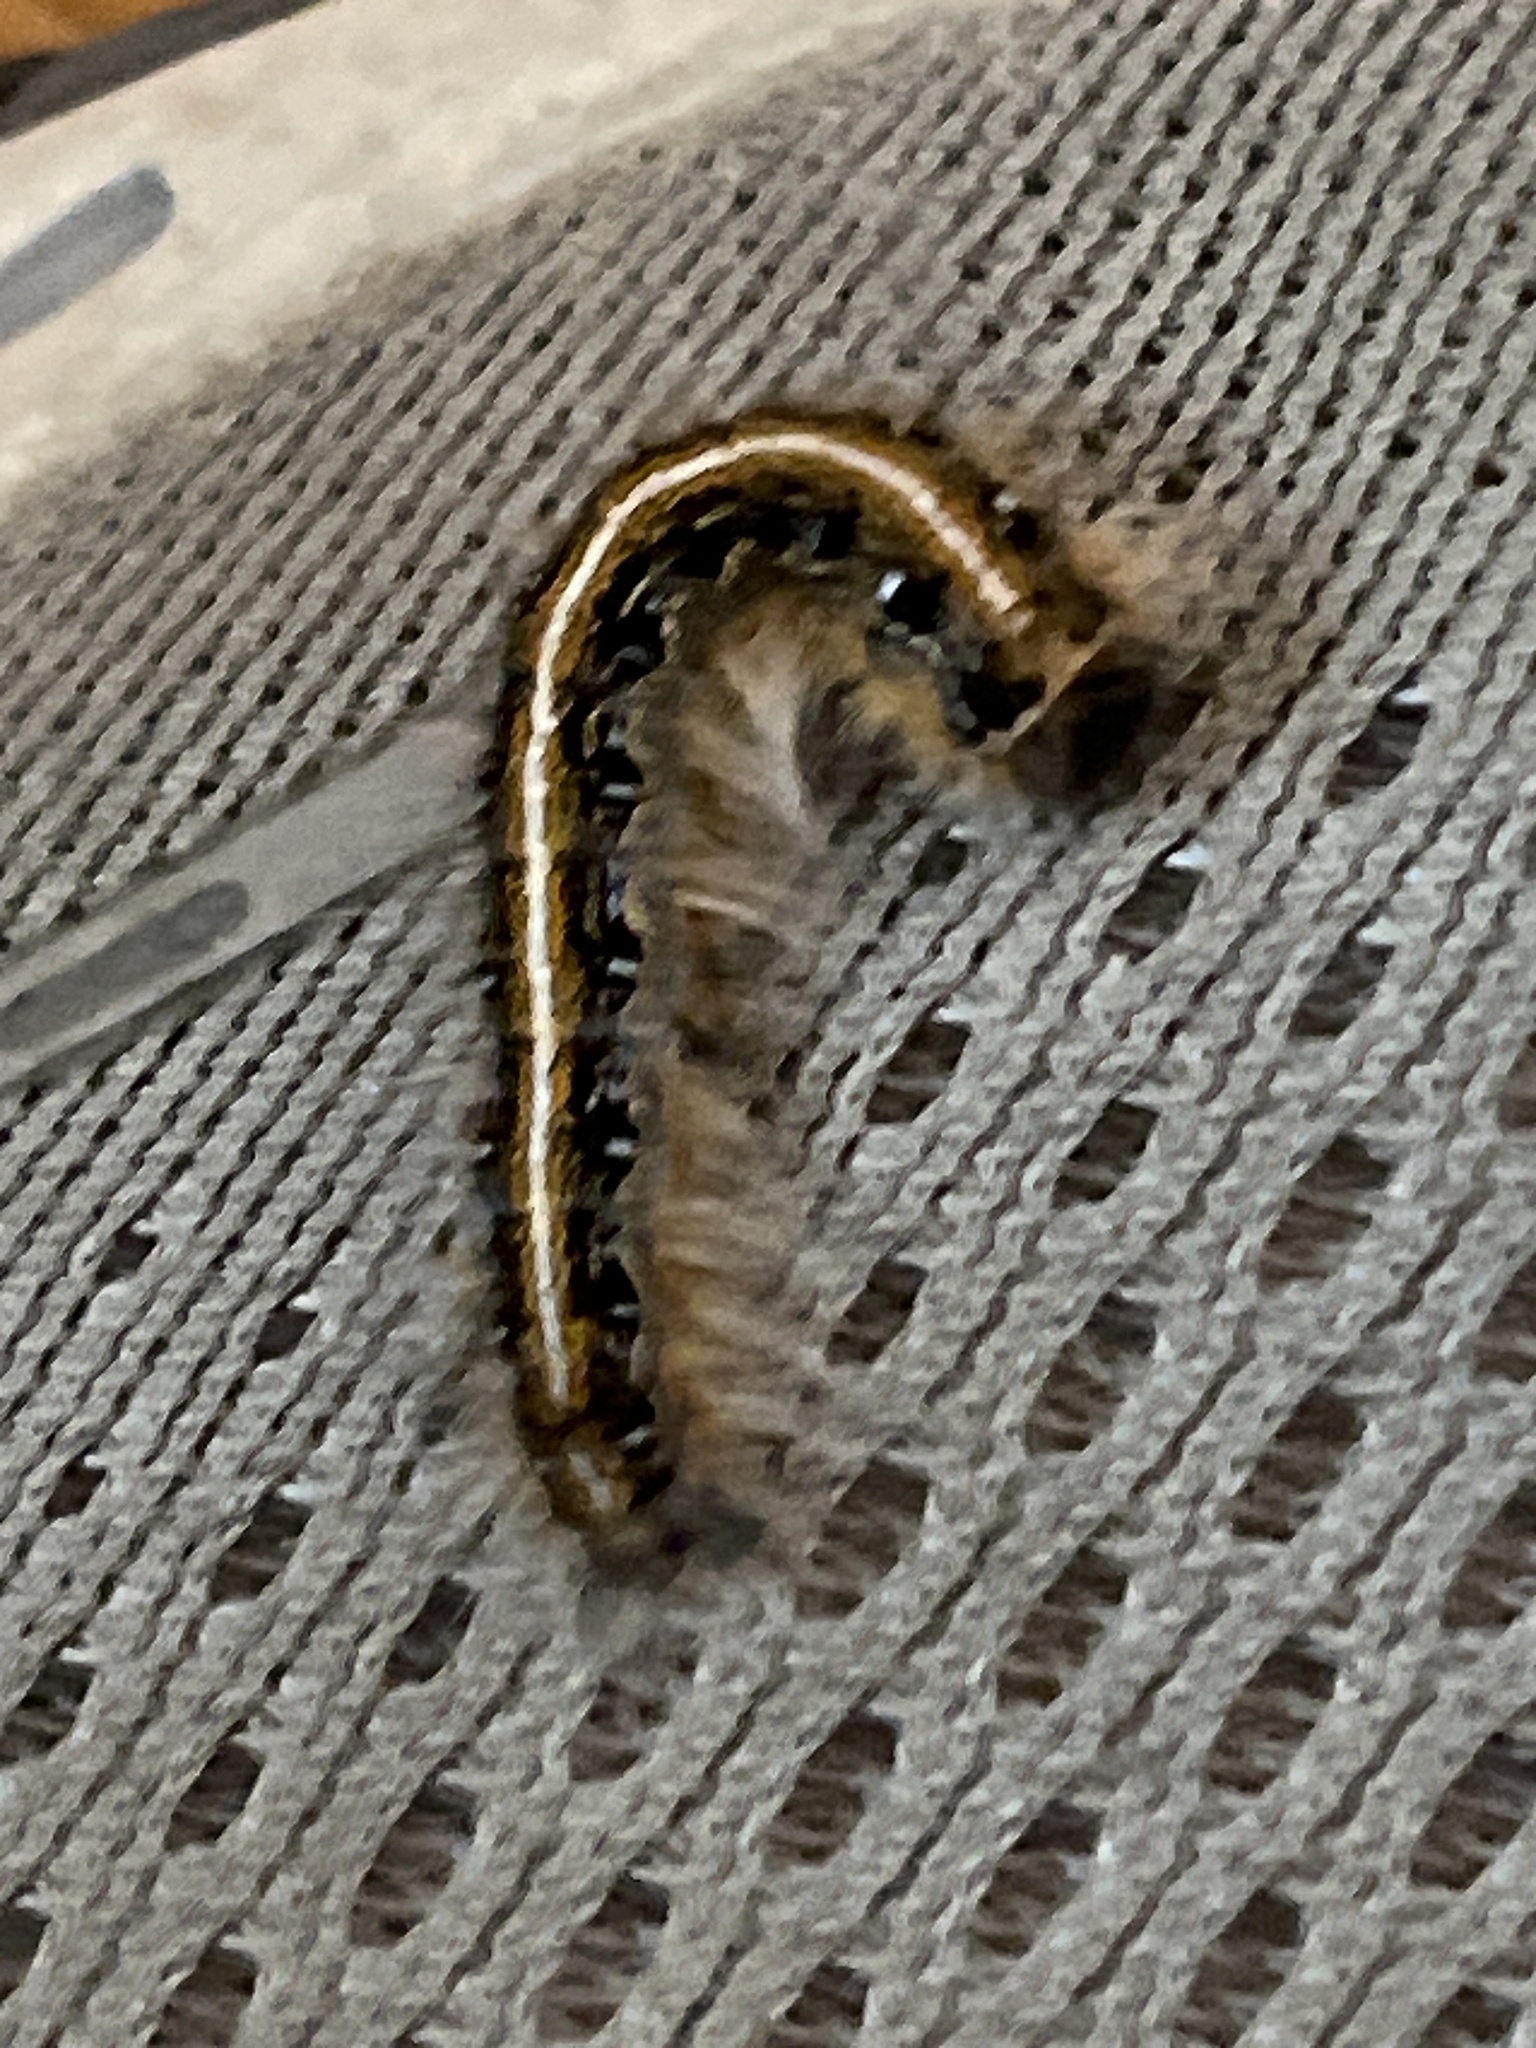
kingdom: Animalia
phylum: Arthropoda
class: Insecta
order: Lepidoptera
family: Lasiocampidae
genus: Malacosoma
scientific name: Malacosoma americana
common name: Eastern tent caterpillar moth
